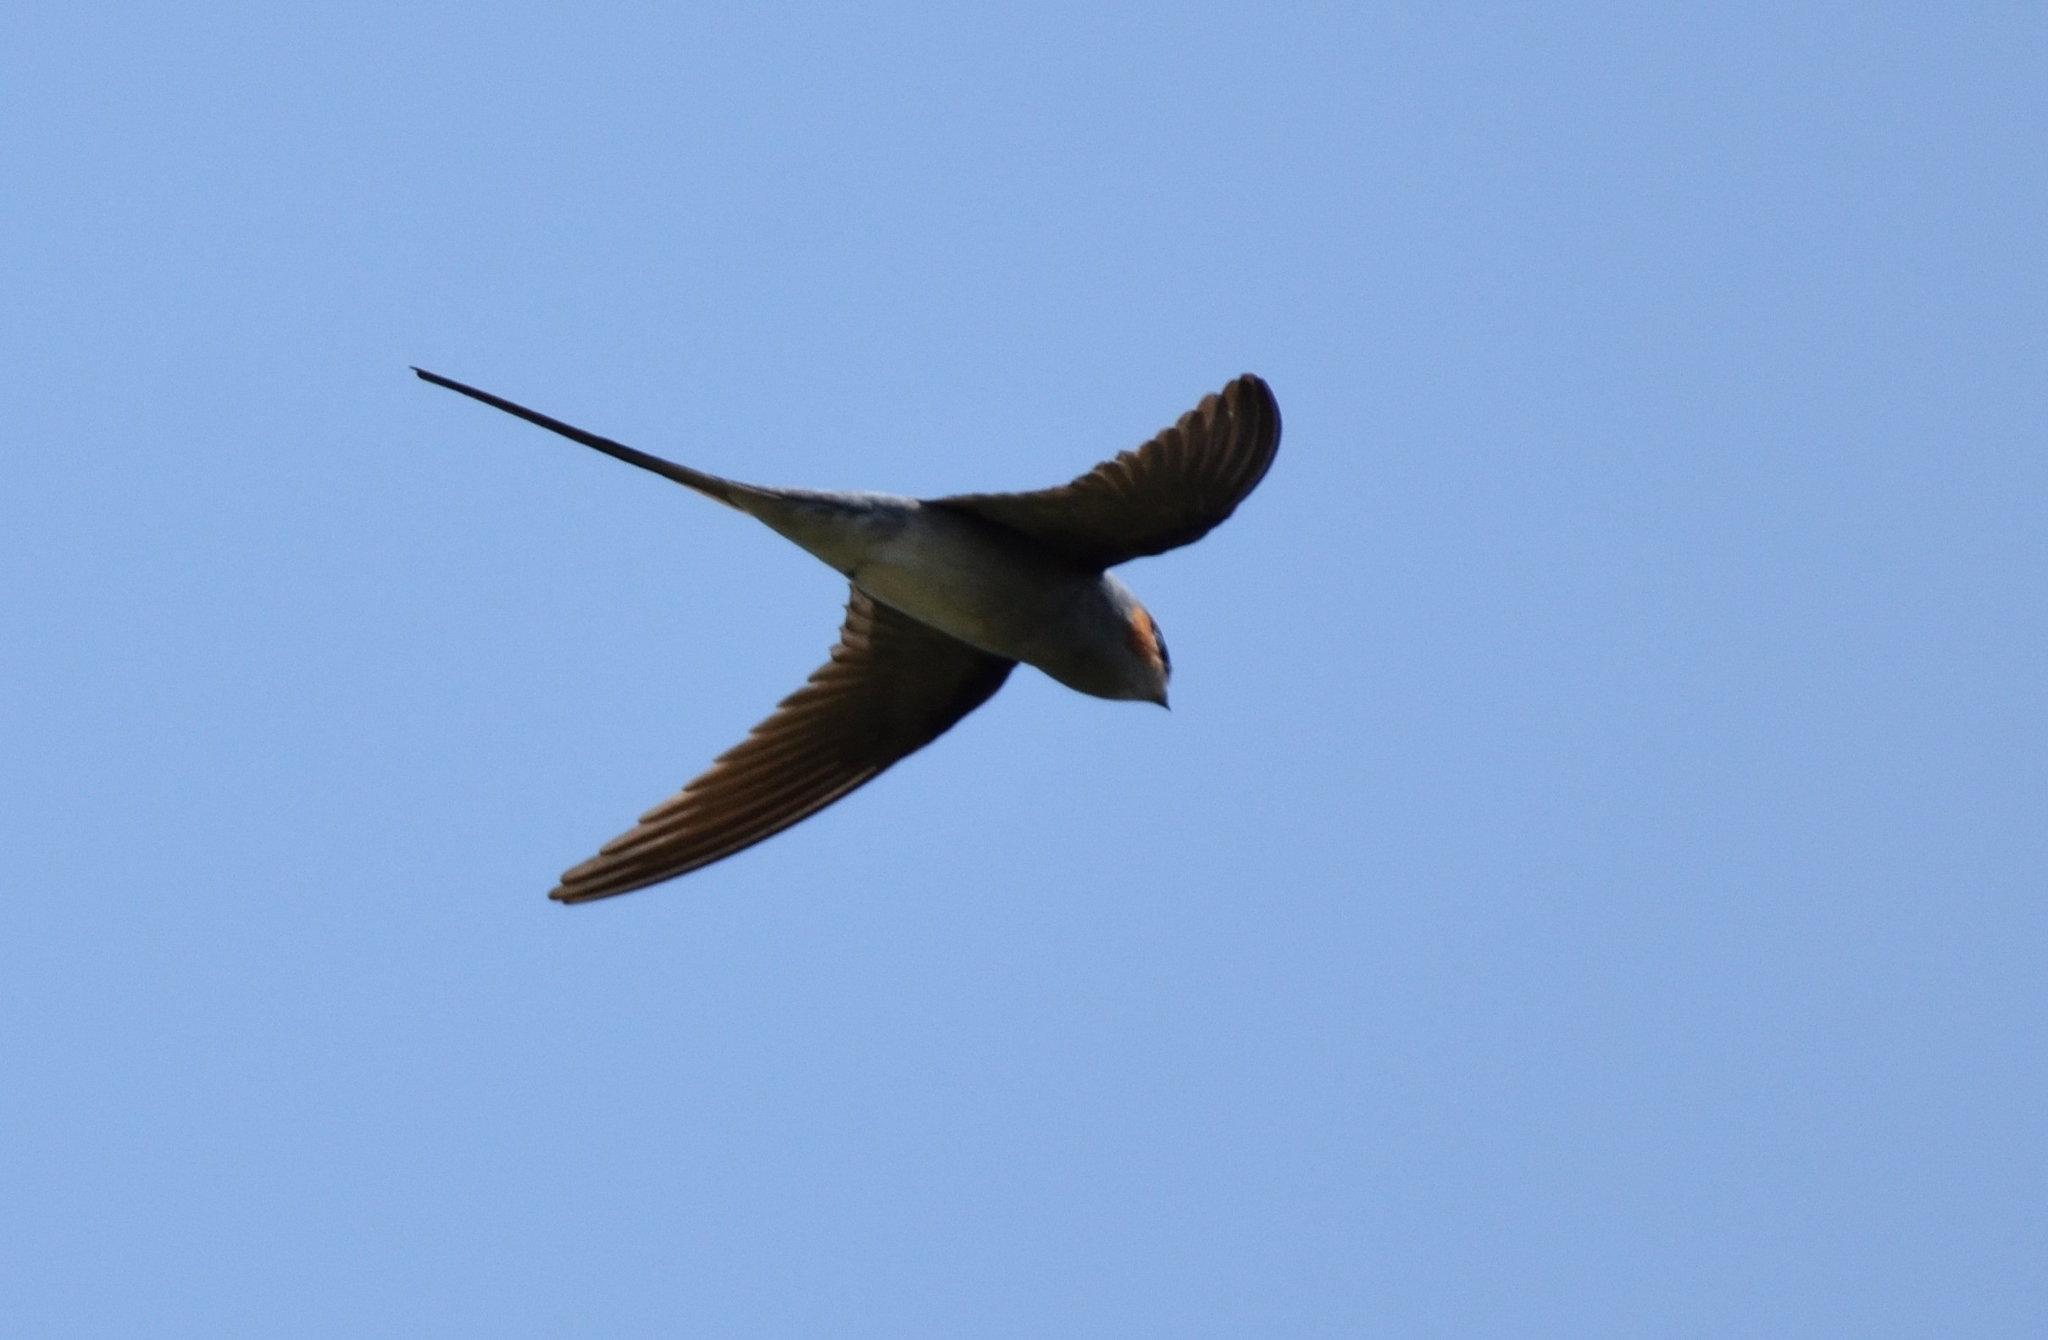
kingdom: Animalia
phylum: Chordata
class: Aves
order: Apodiformes
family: Hemiprocnidae
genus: Hemiprocne
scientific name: Hemiprocne coronata
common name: Crested treeswift
